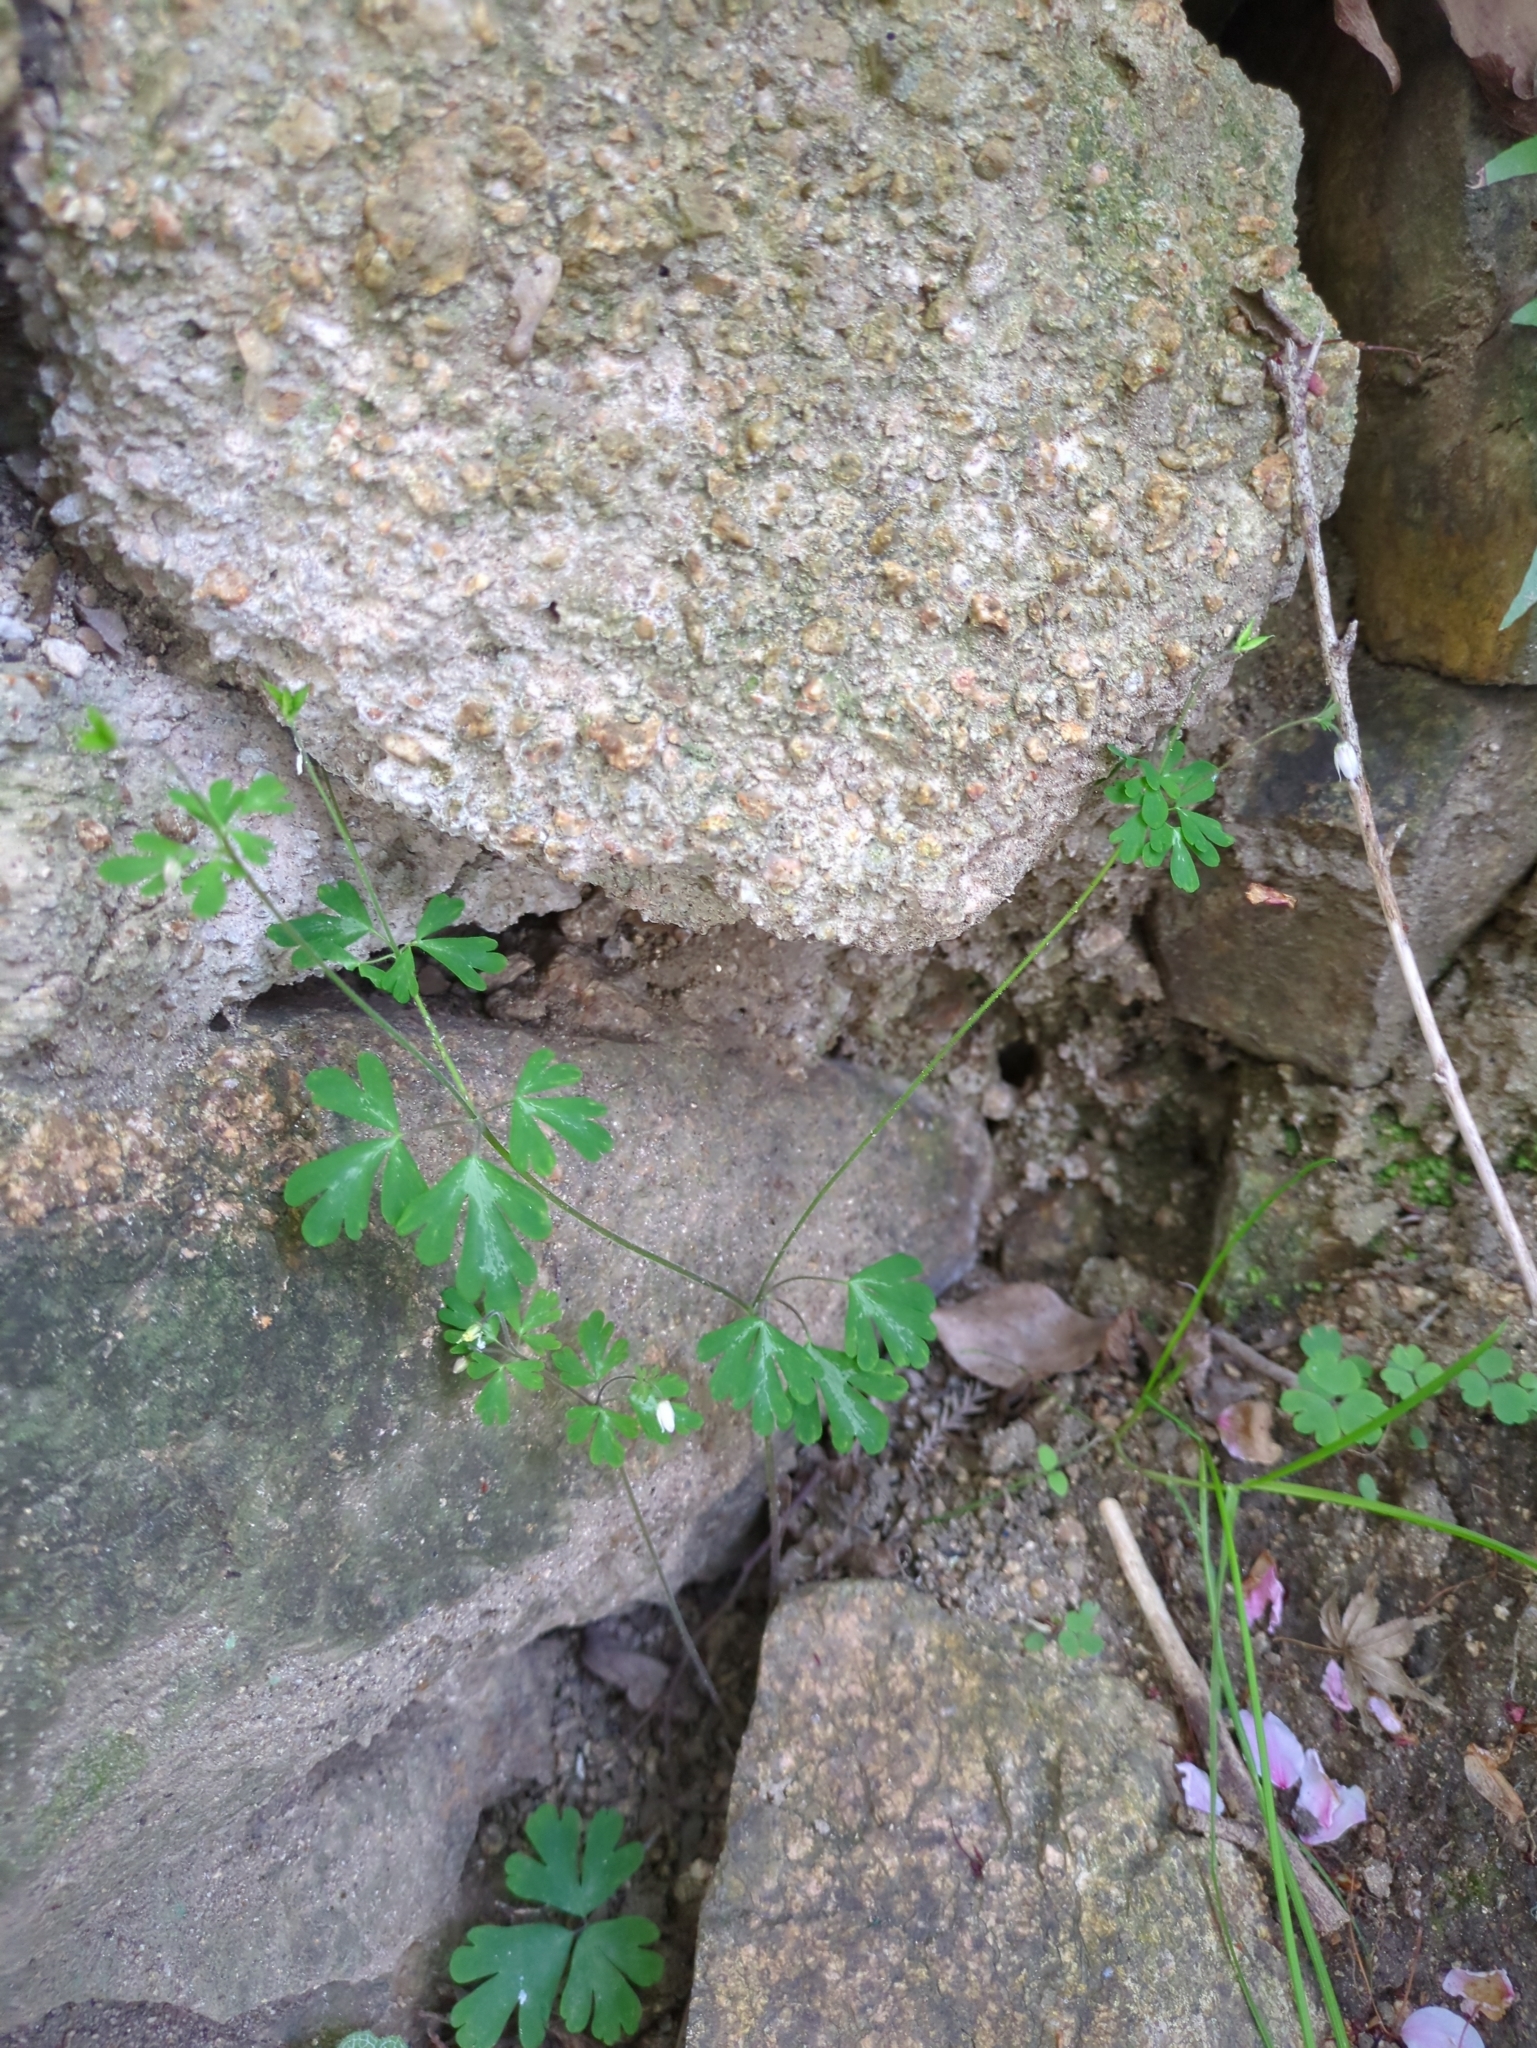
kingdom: Plantae
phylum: Tracheophyta
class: Magnoliopsida
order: Ranunculales
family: Ranunculaceae
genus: Semiaquilegia
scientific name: Semiaquilegia adoxoides
